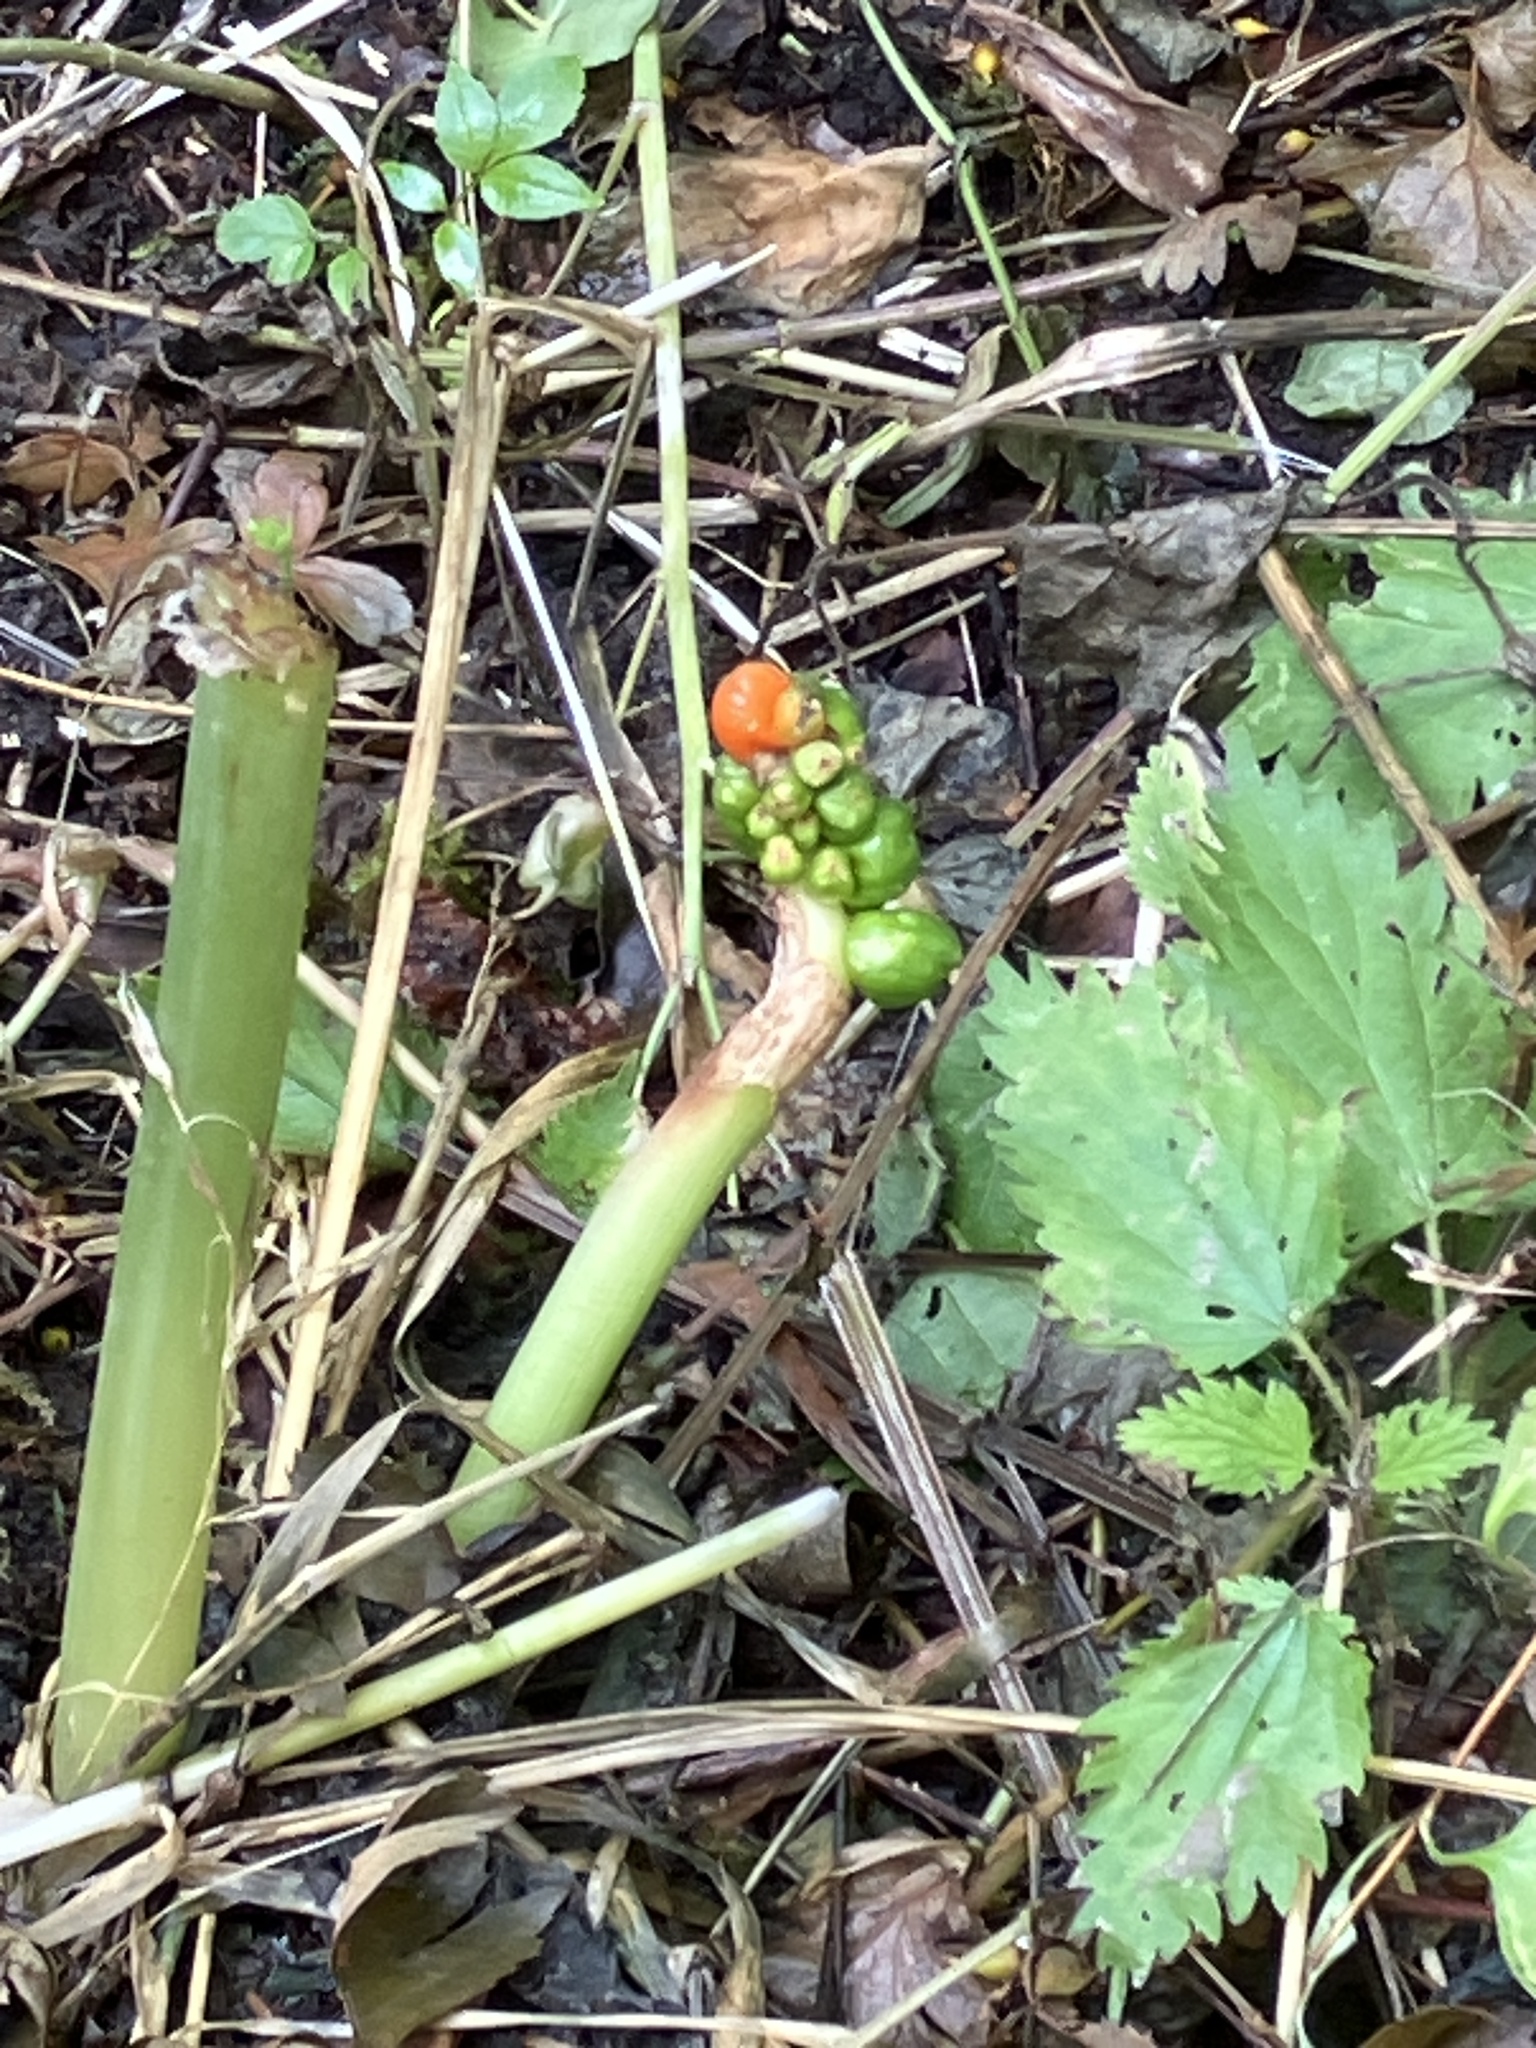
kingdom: Plantae
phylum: Tracheophyta
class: Liliopsida
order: Alismatales
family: Araceae
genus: Arum
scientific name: Arum maculatum
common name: Lords-and-ladies
